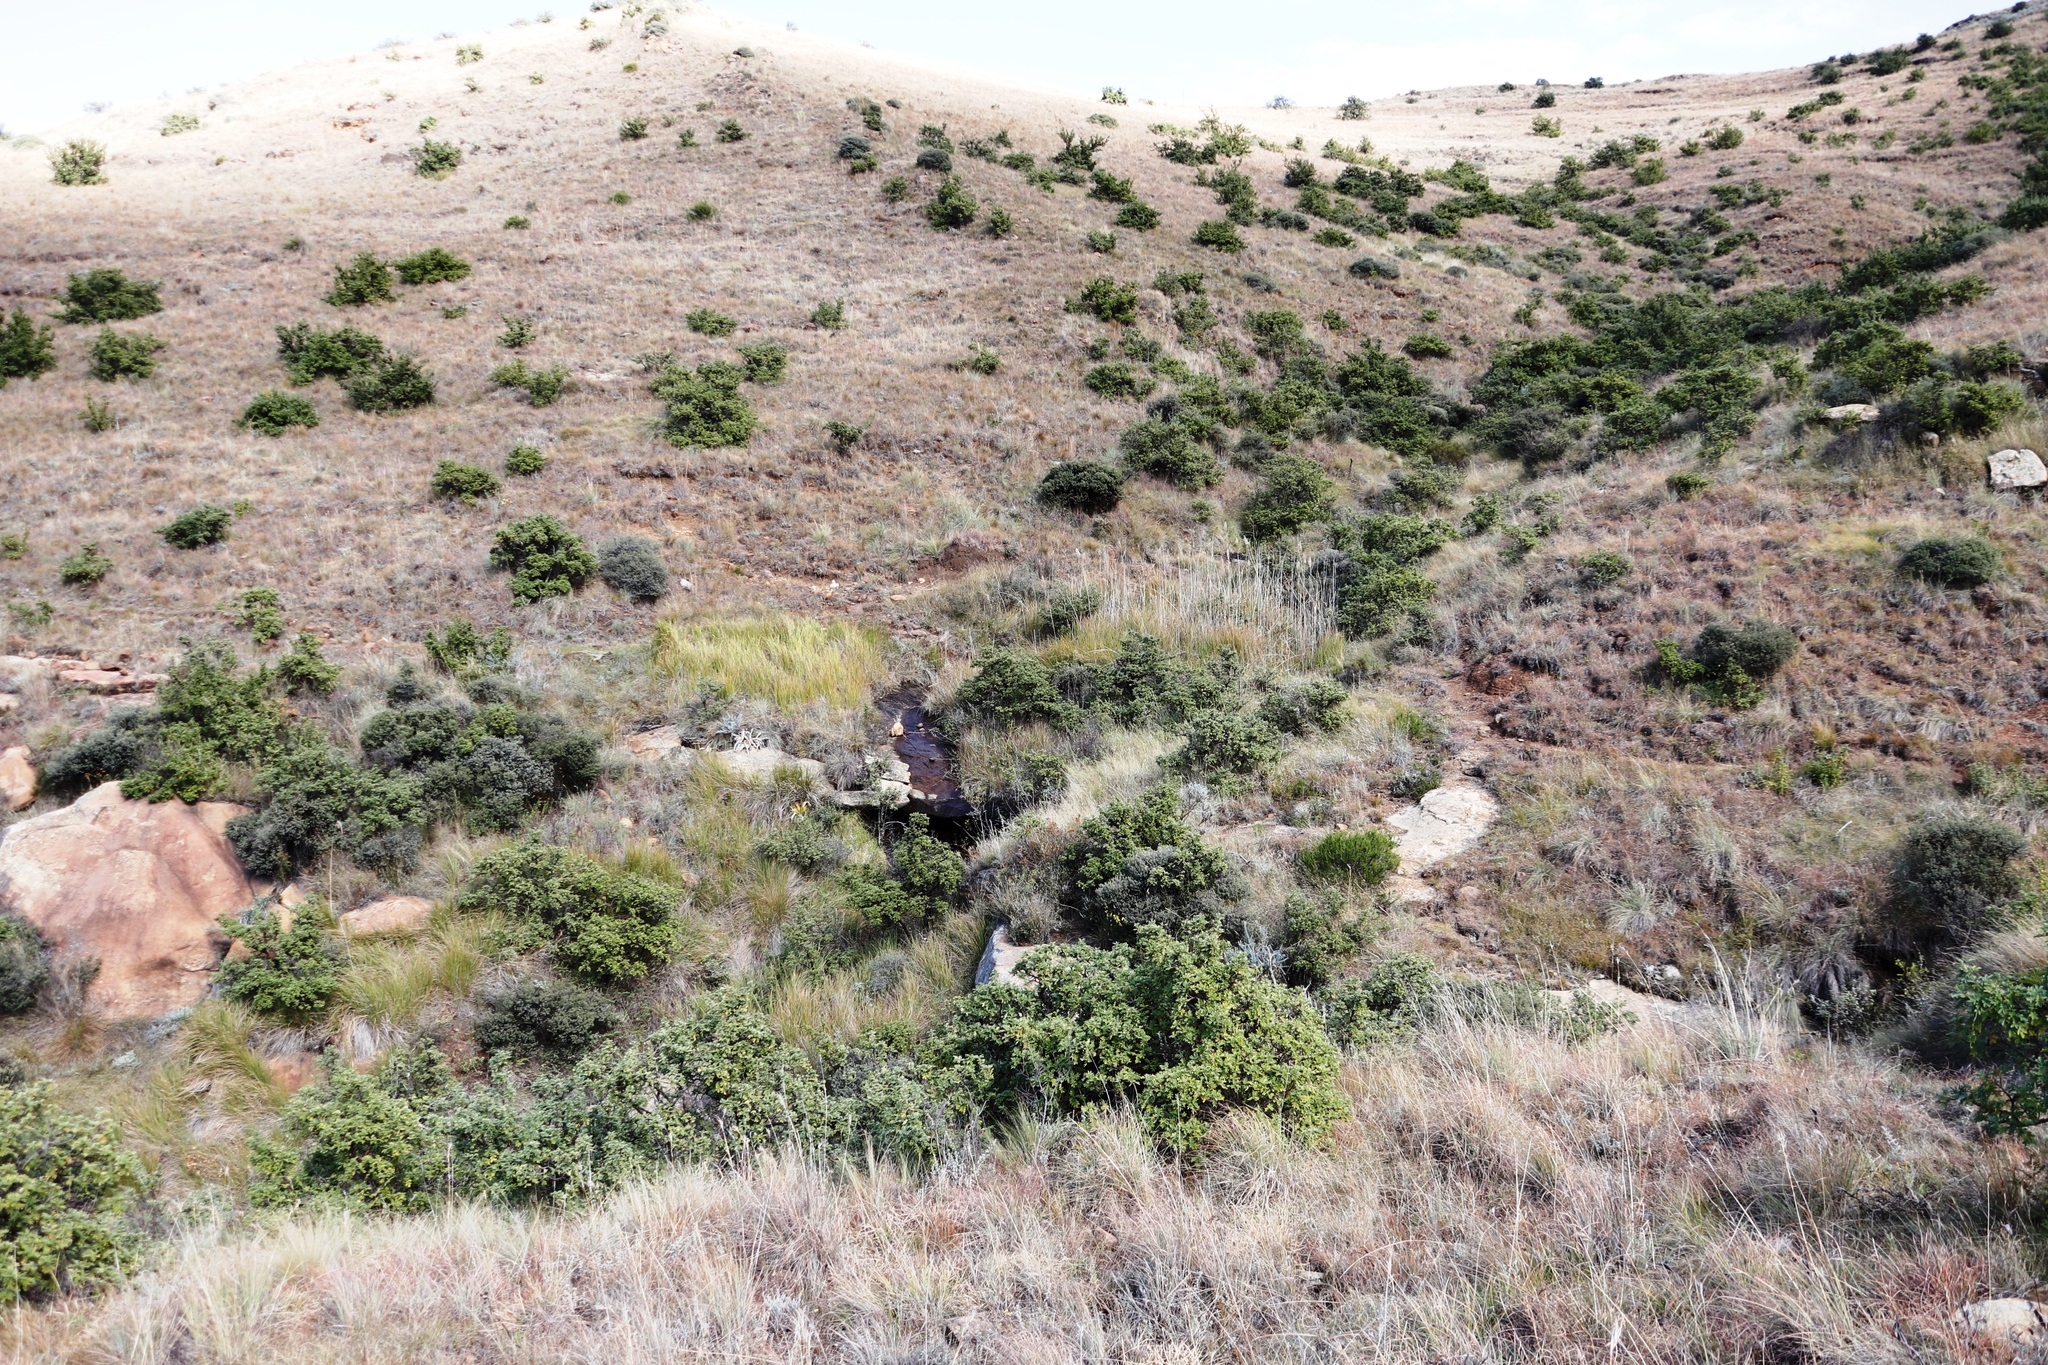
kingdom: Plantae
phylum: Tracheophyta
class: Liliopsida
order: Poales
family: Poaceae
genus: Phragmites
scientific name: Phragmites australis
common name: Common reed
